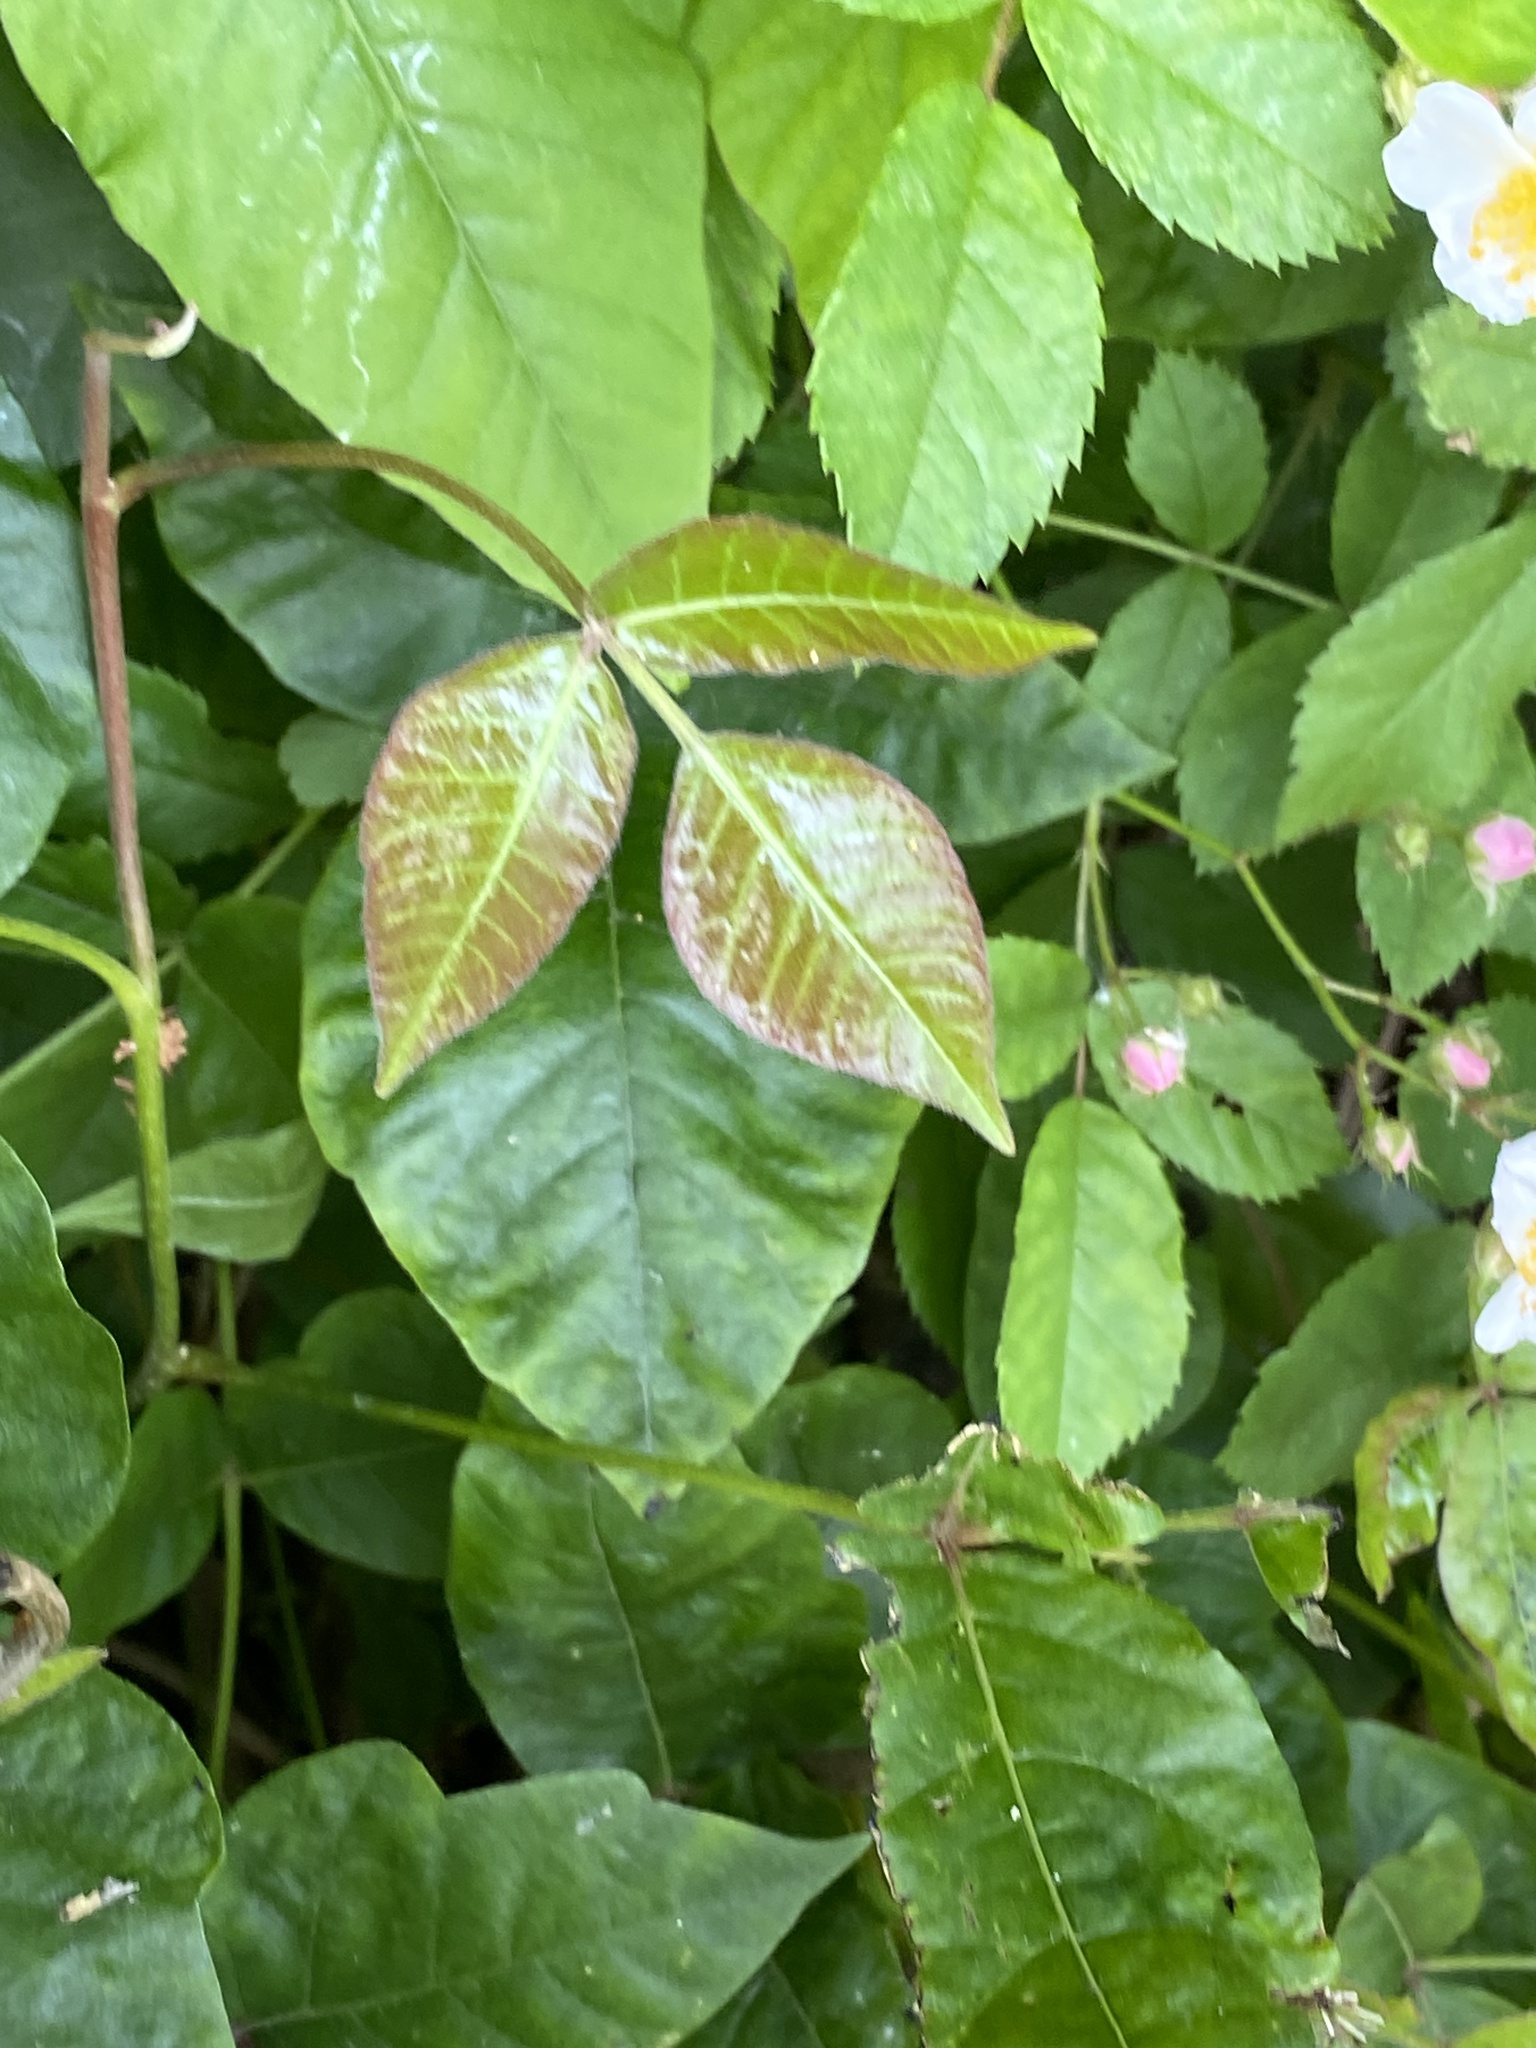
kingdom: Plantae
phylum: Tracheophyta
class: Magnoliopsida
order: Sapindales
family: Anacardiaceae
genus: Toxicodendron
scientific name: Toxicodendron radicans
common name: Poison ivy
